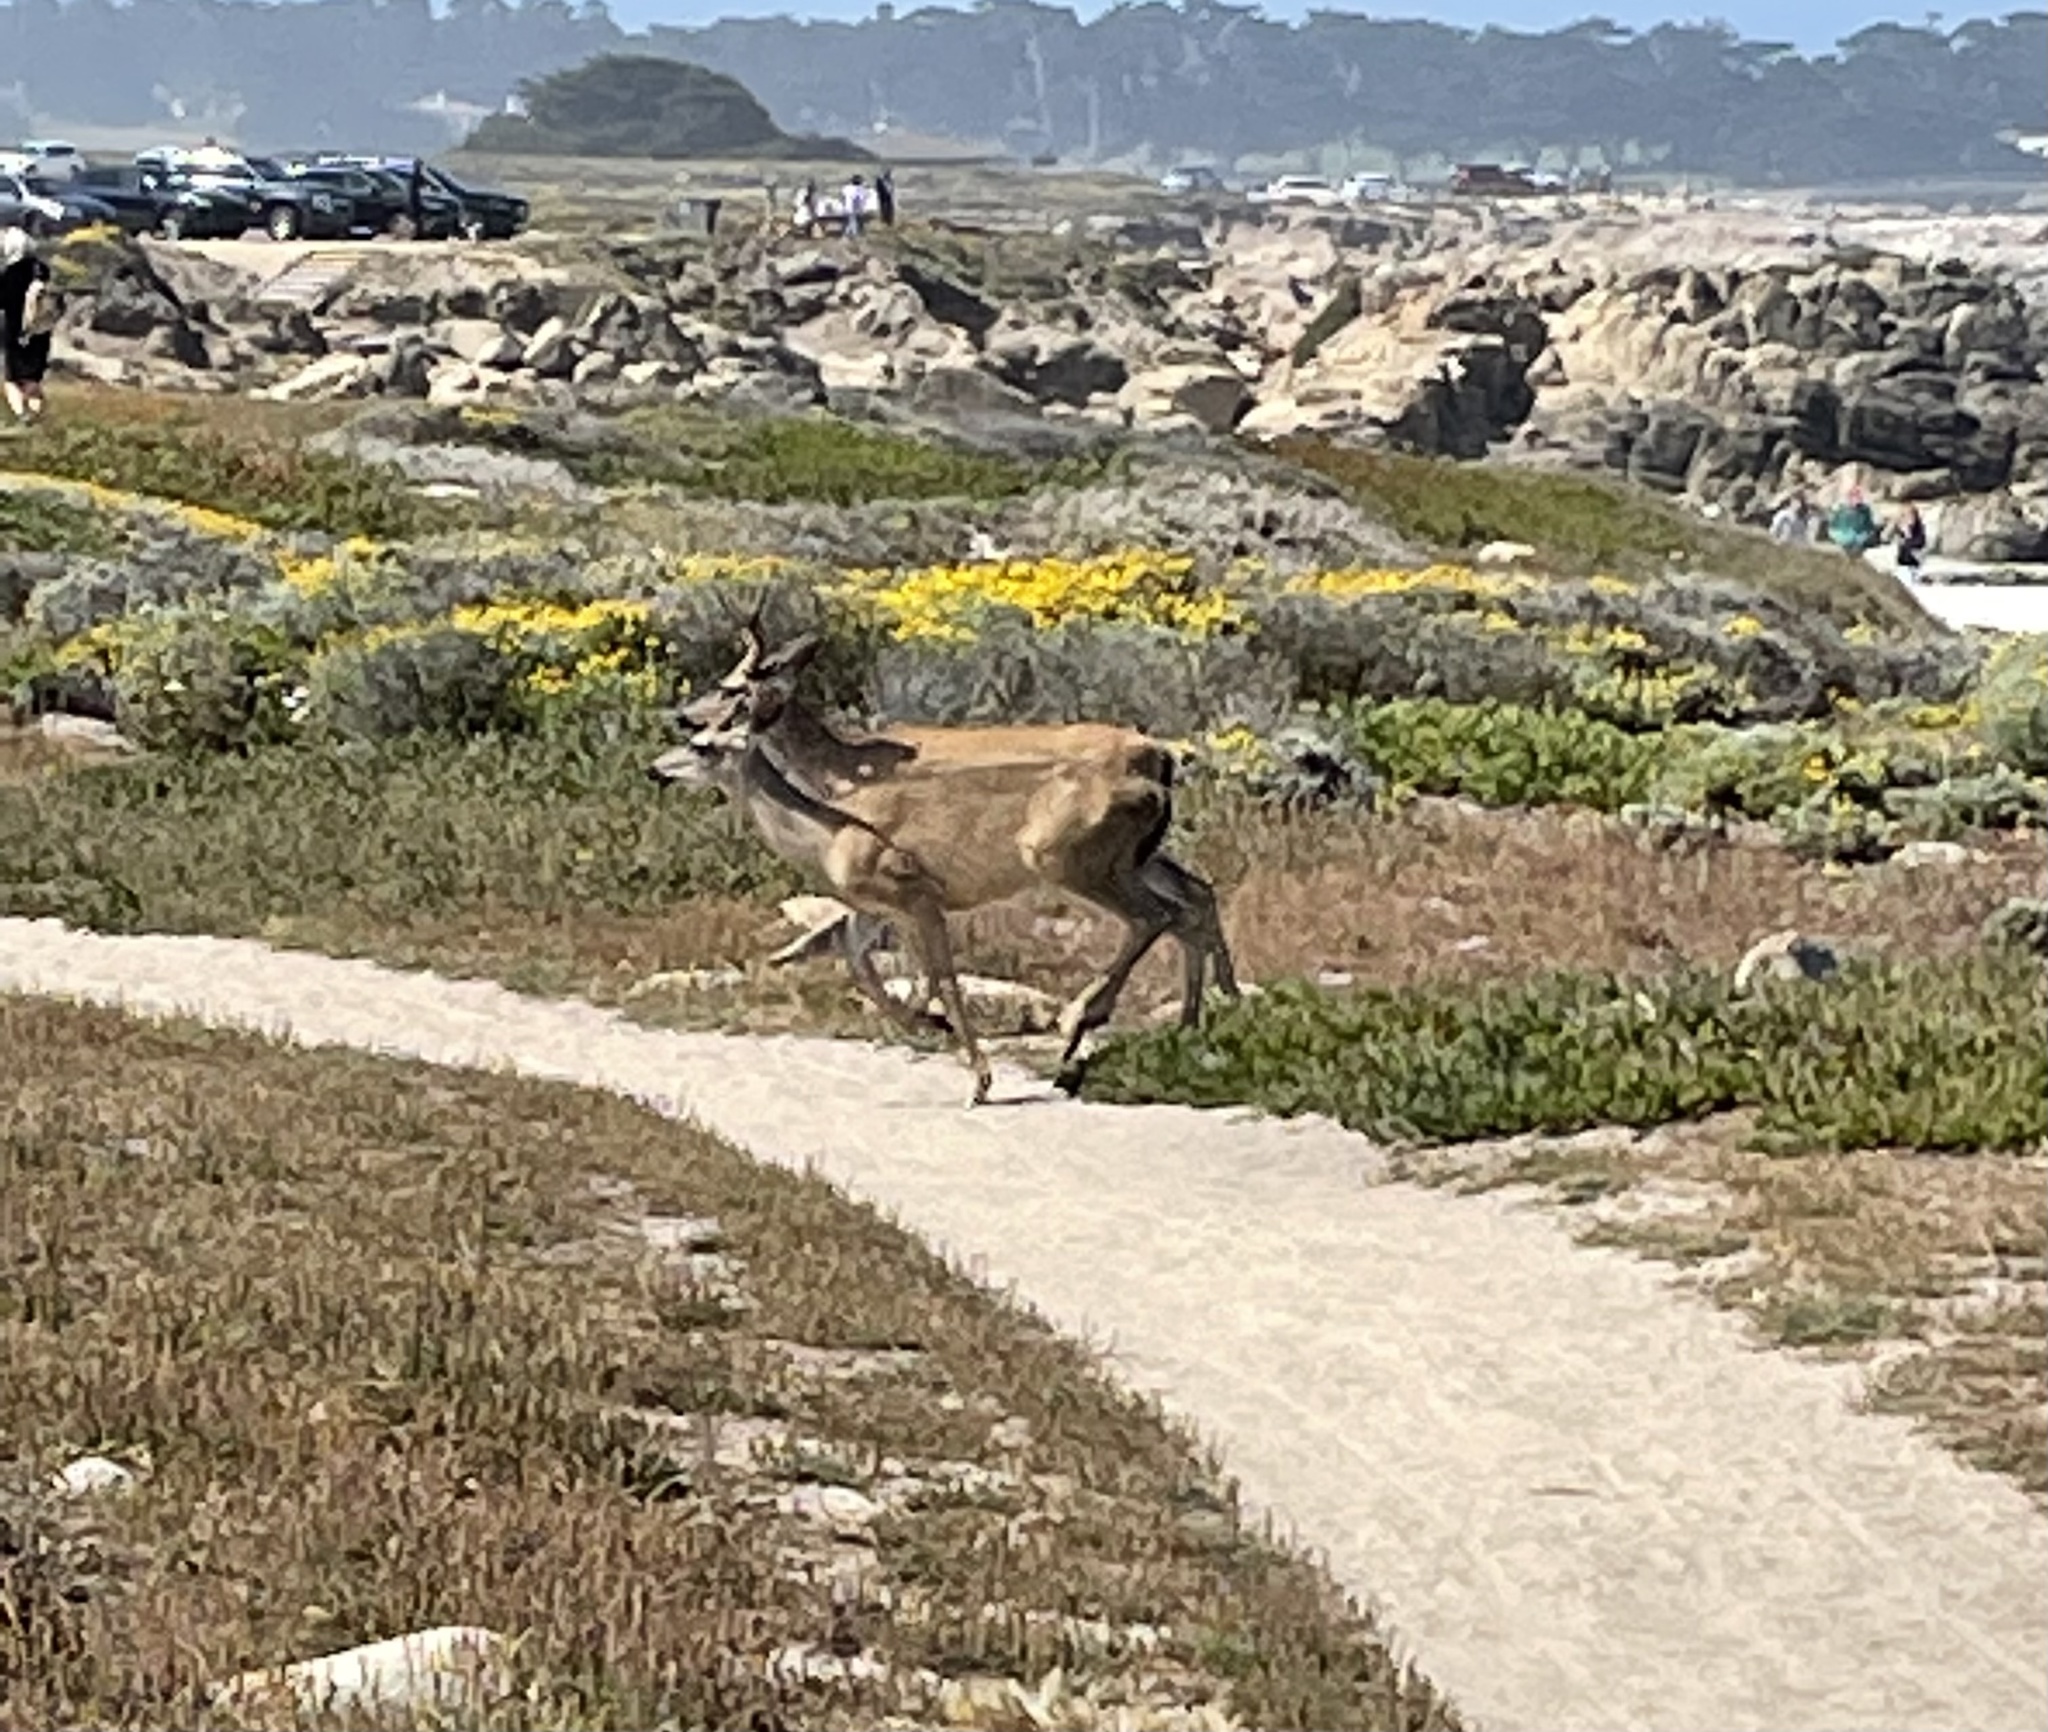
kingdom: Animalia
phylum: Chordata
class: Mammalia
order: Artiodactyla
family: Cervidae
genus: Odocoileus
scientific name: Odocoileus hemionus
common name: Mule deer
